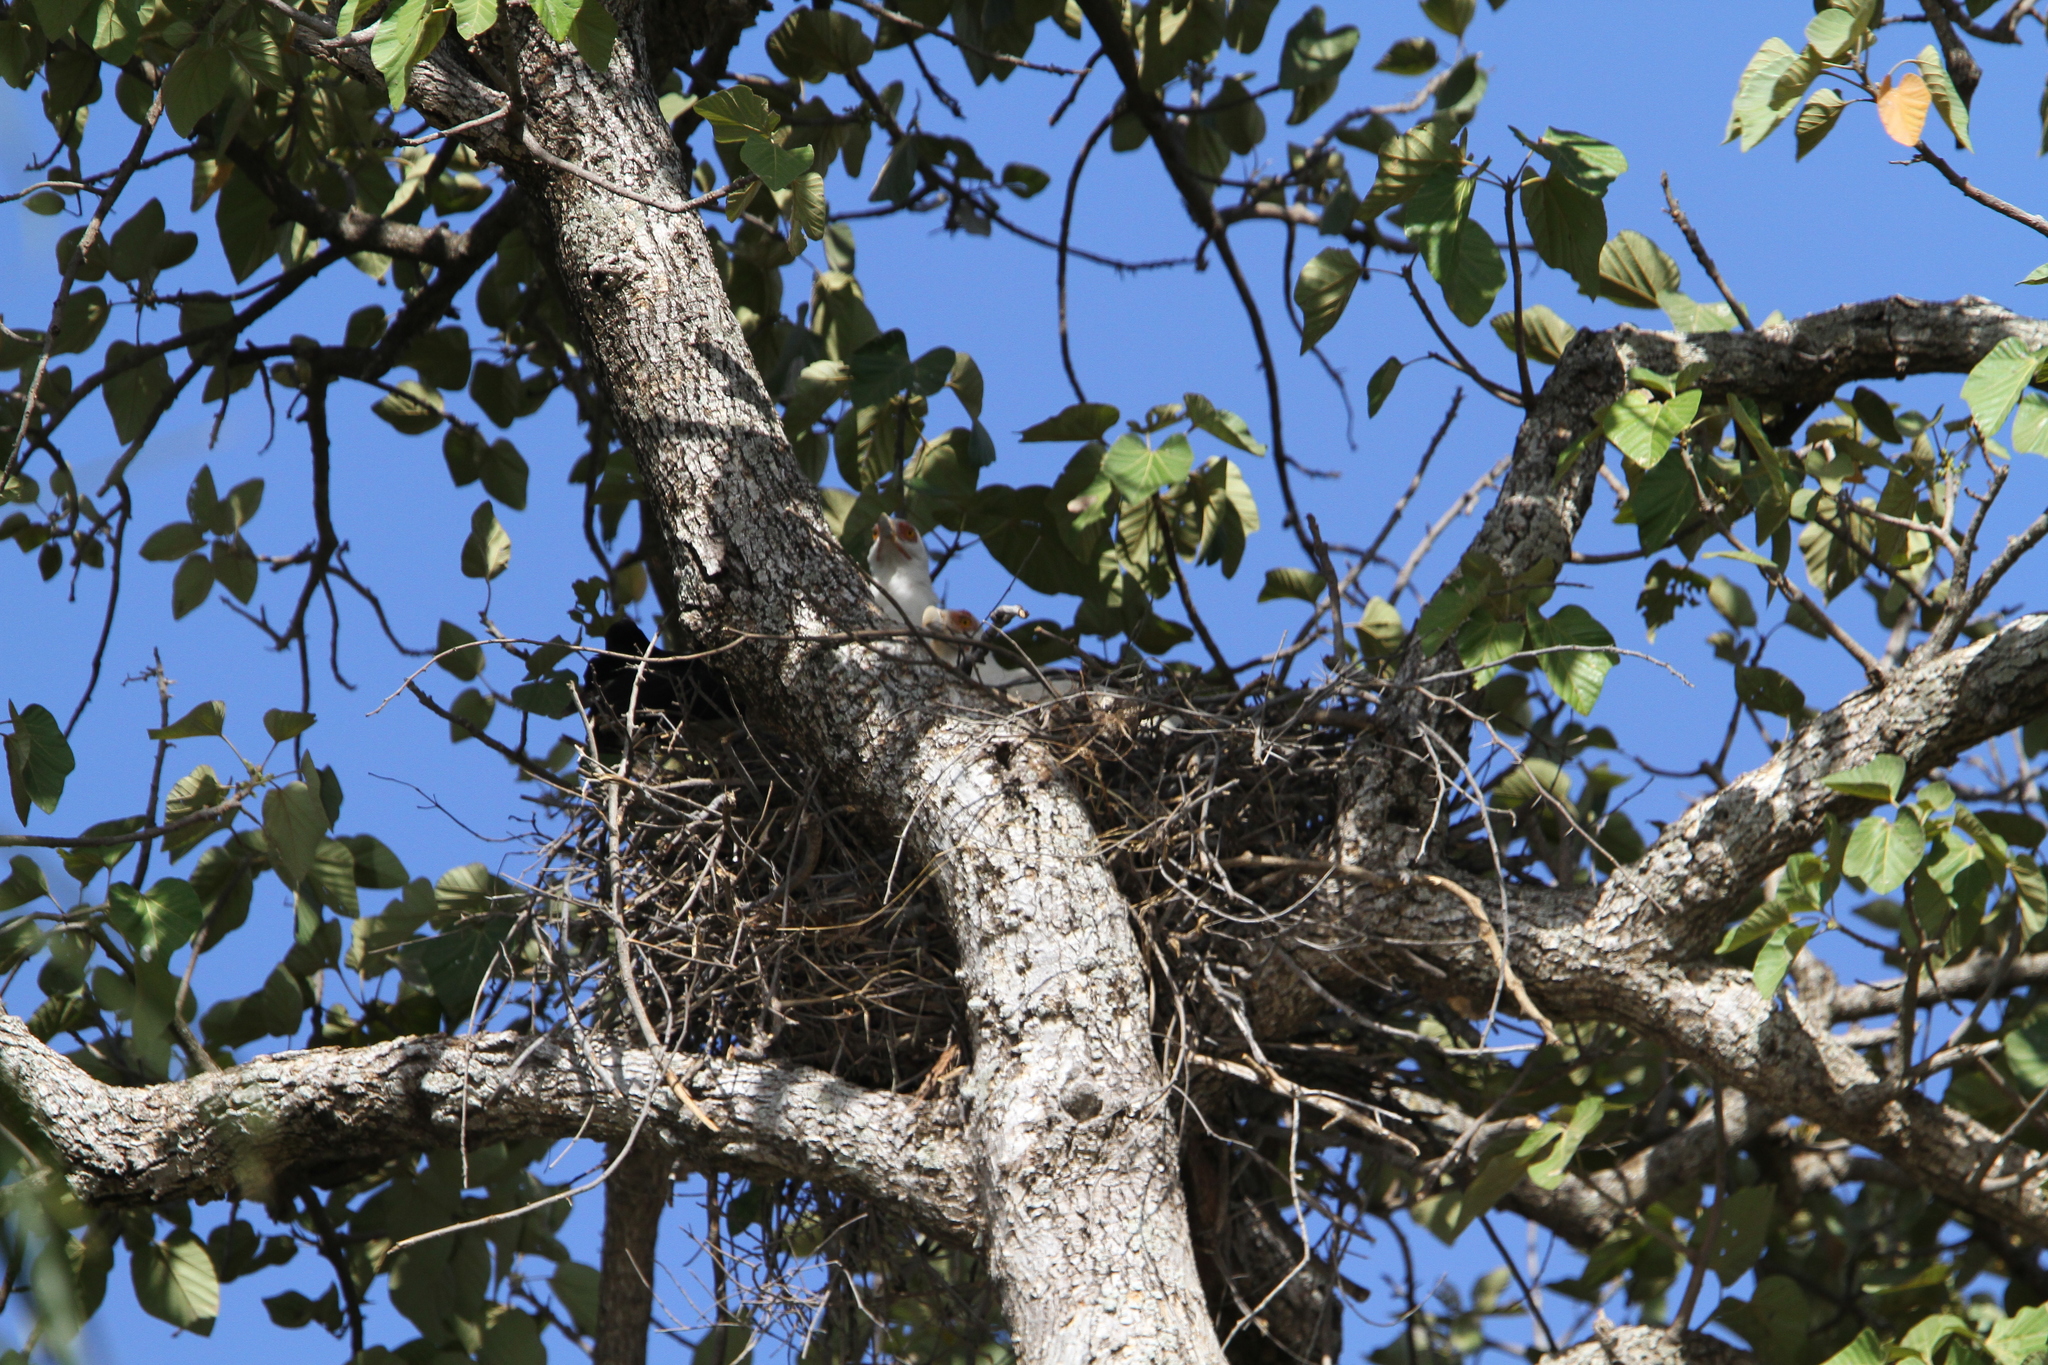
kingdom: Animalia
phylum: Chordata
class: Aves
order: Accipitriformes
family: Accipitridae
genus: Gypohierax
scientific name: Gypohierax angolensis
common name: Palm-nut vulture
